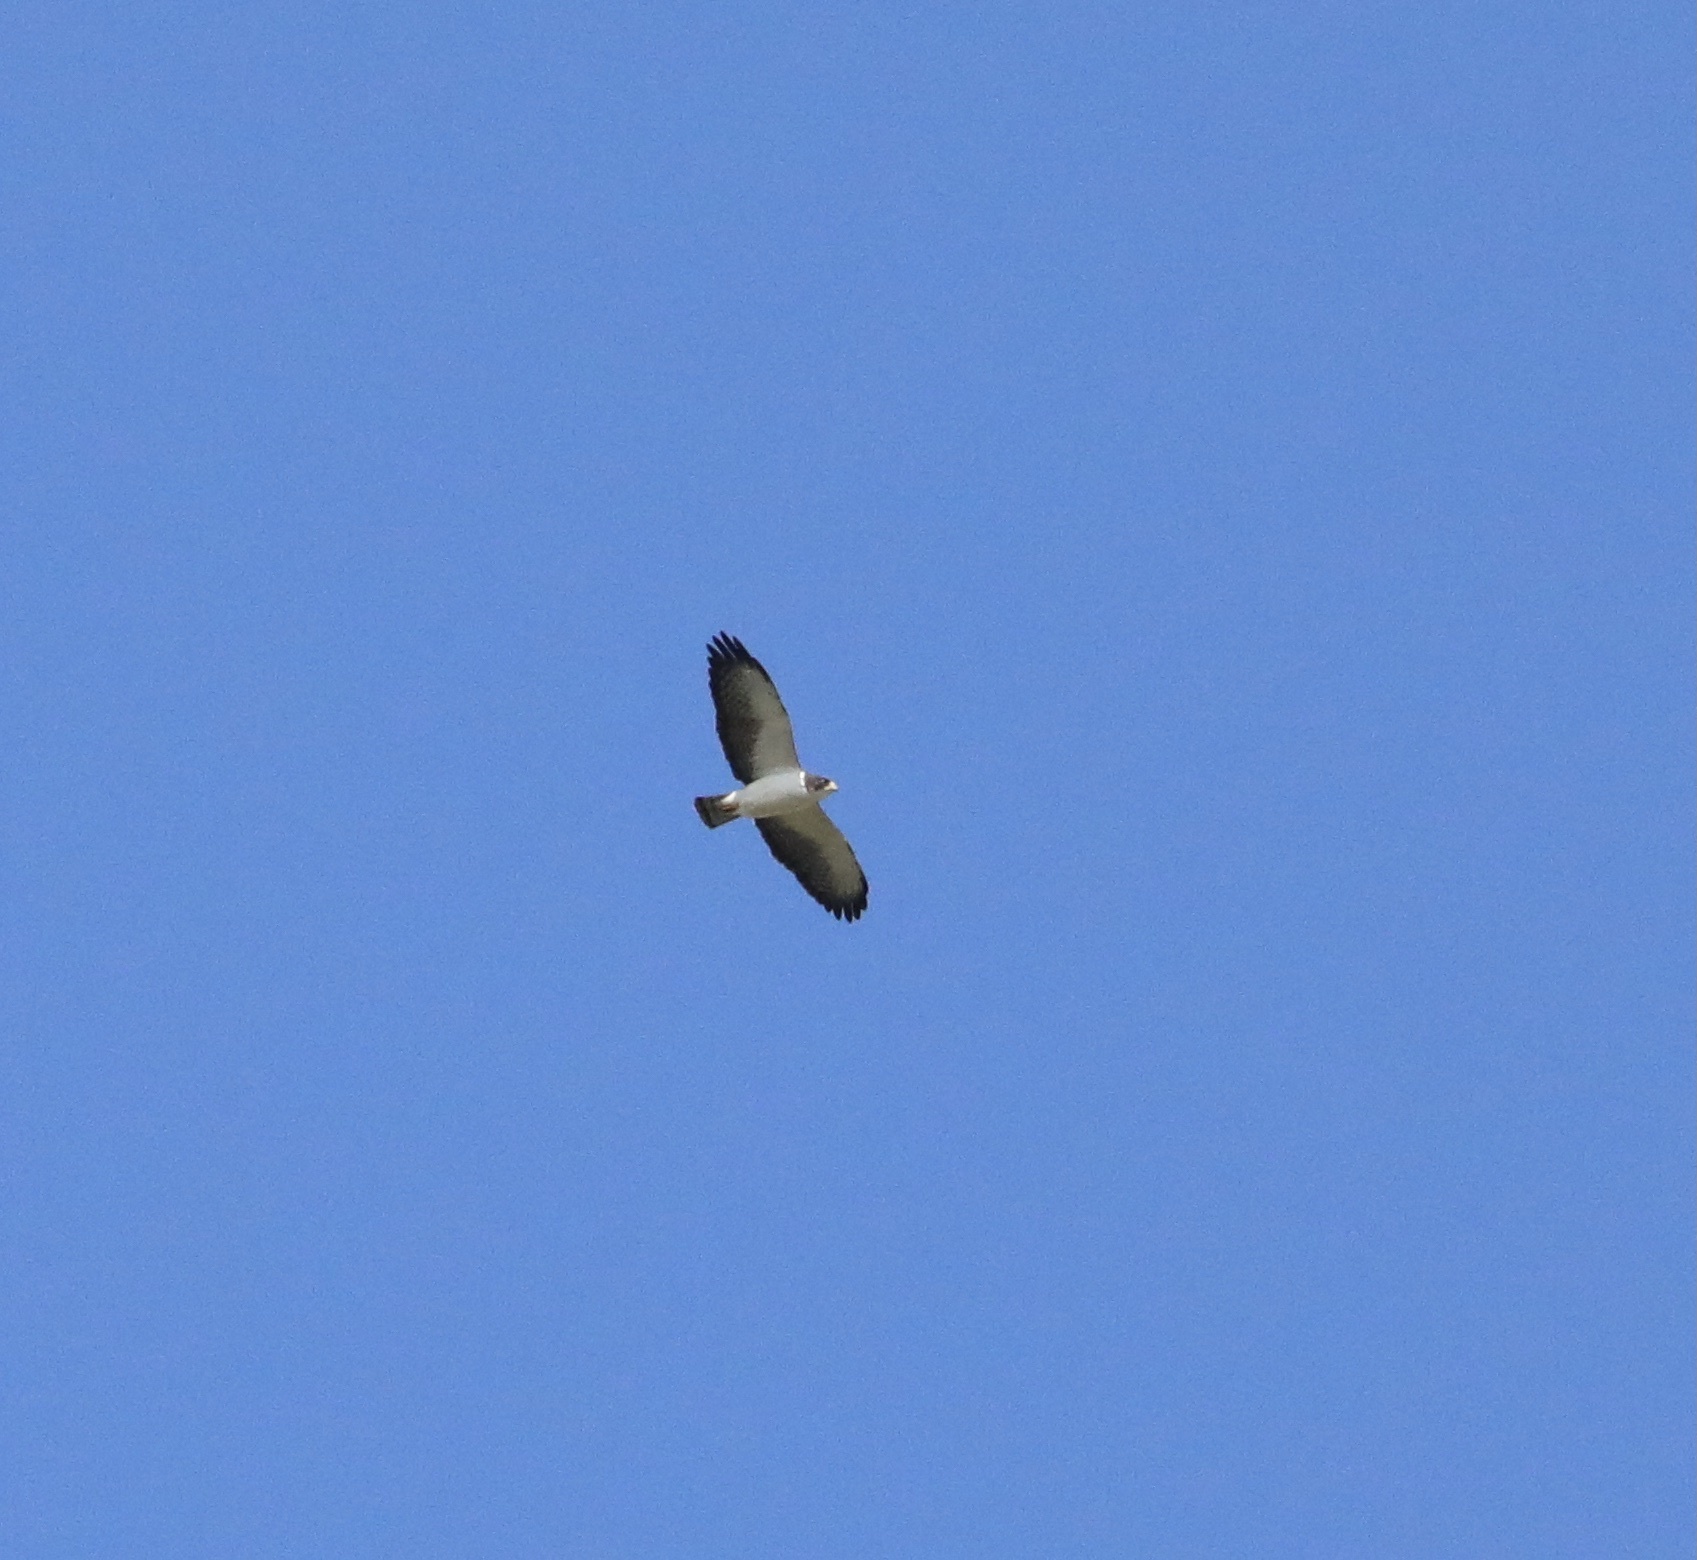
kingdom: Animalia
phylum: Chordata
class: Aves
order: Accipitriformes
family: Accipitridae
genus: Buteo
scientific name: Buteo brachyurus
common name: Short-tailed hawk
